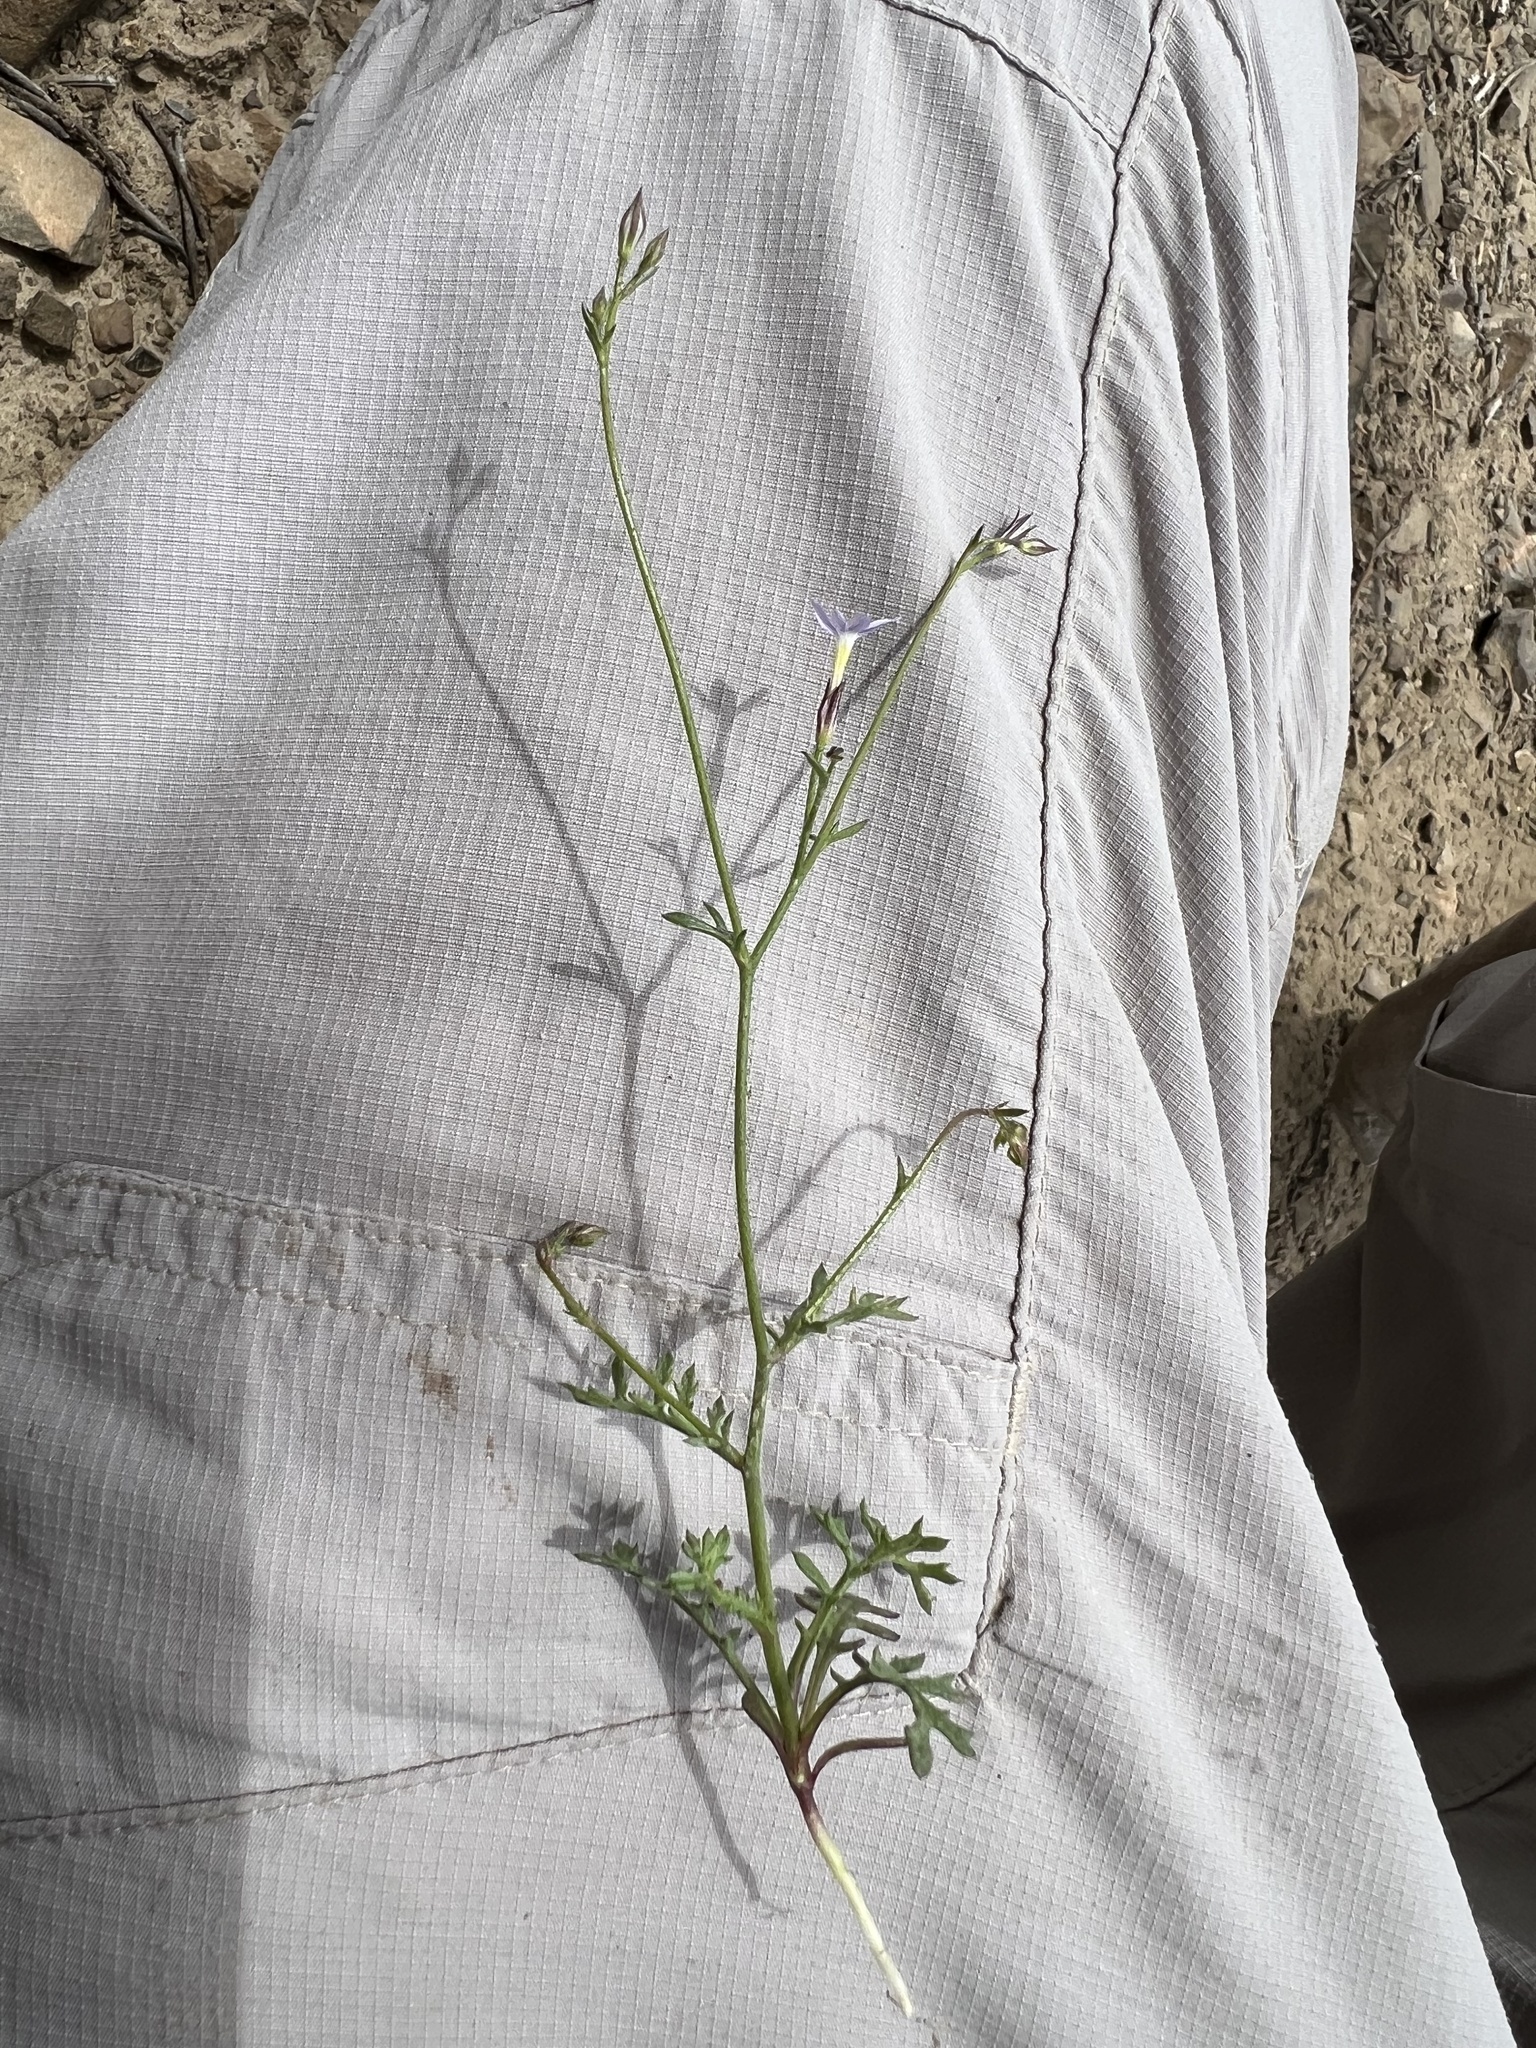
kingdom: Plantae
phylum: Tracheophyta
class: Magnoliopsida
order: Ericales
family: Polemoniaceae
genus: Gilia
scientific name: Gilia ophthalmoides
